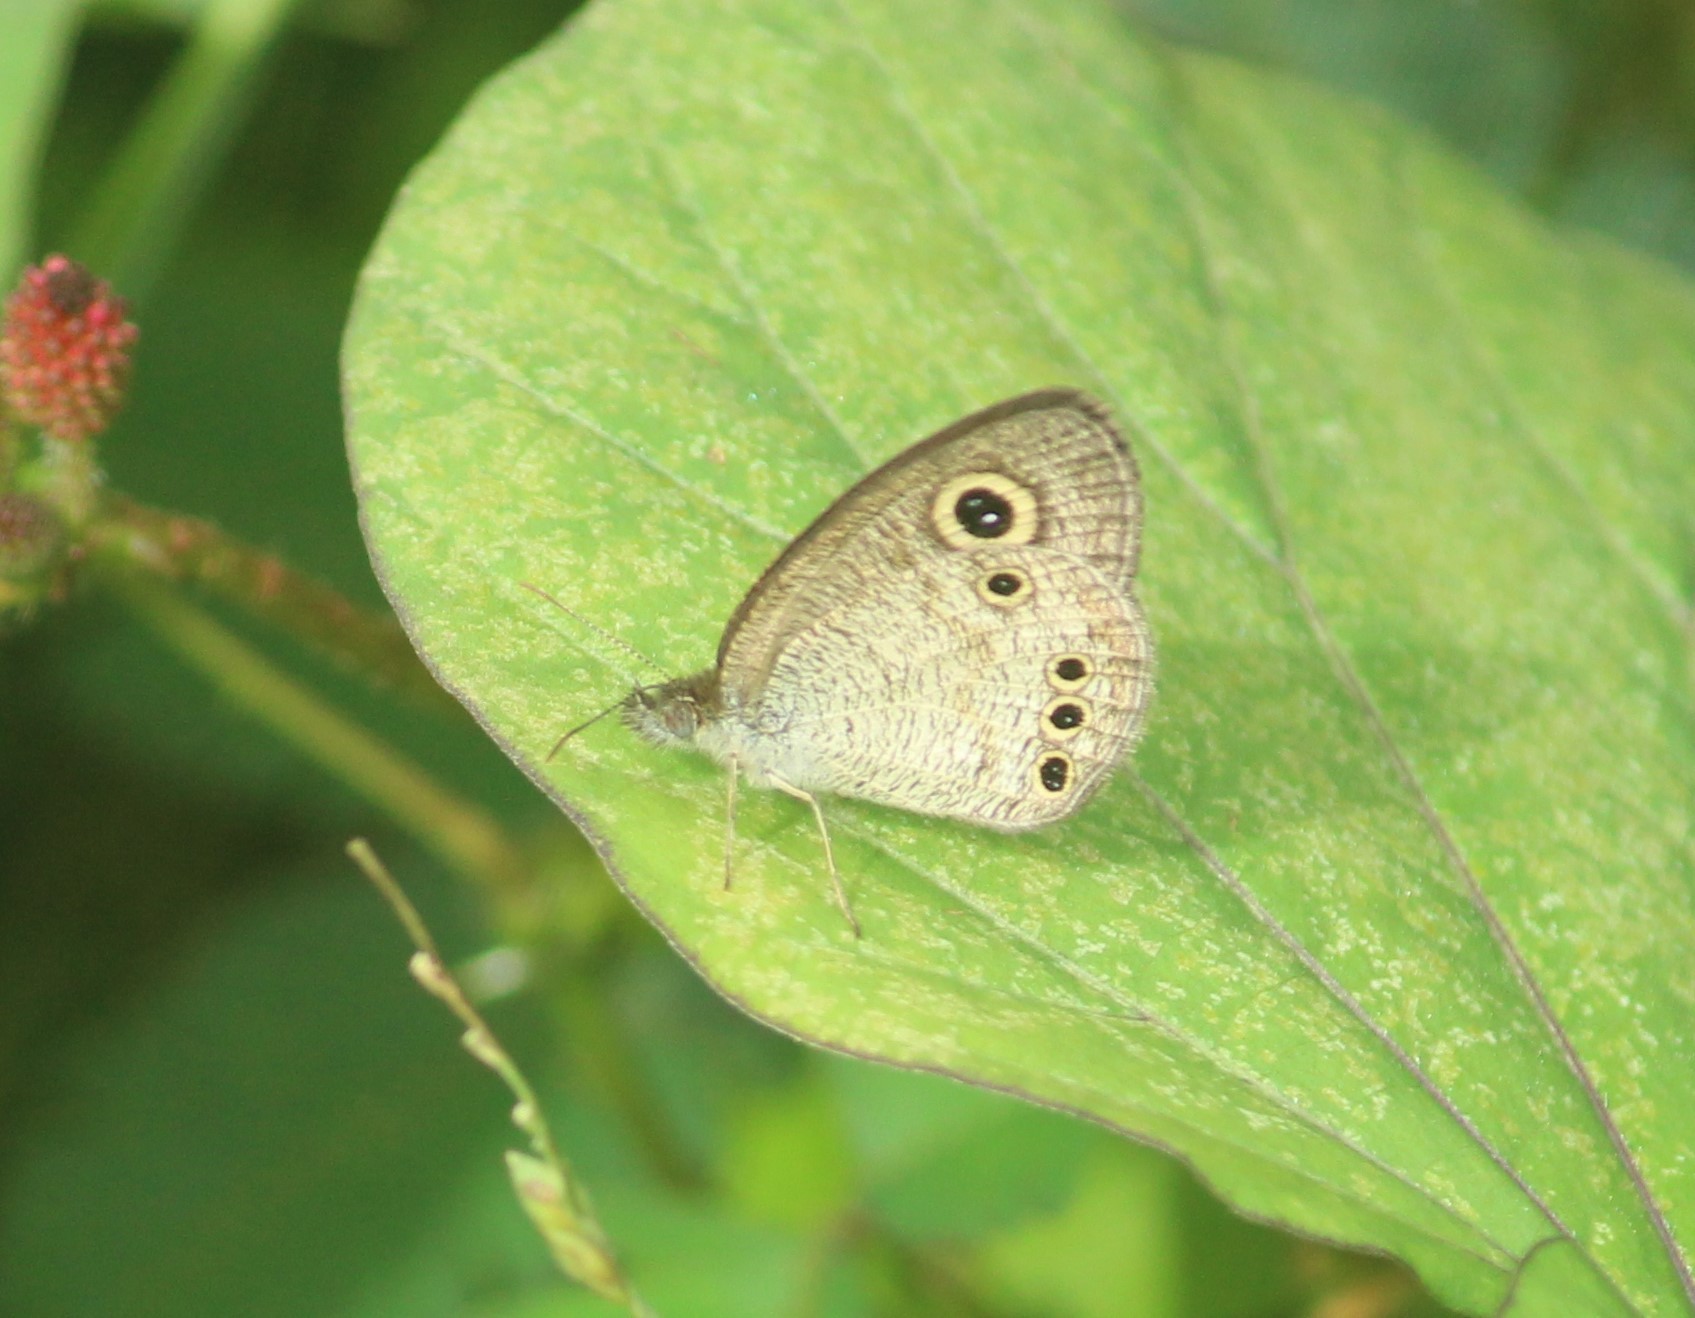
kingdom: Animalia
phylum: Arthropoda
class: Insecta
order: Lepidoptera
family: Nymphalidae
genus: Ypthima
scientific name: Ypthima huebneri
